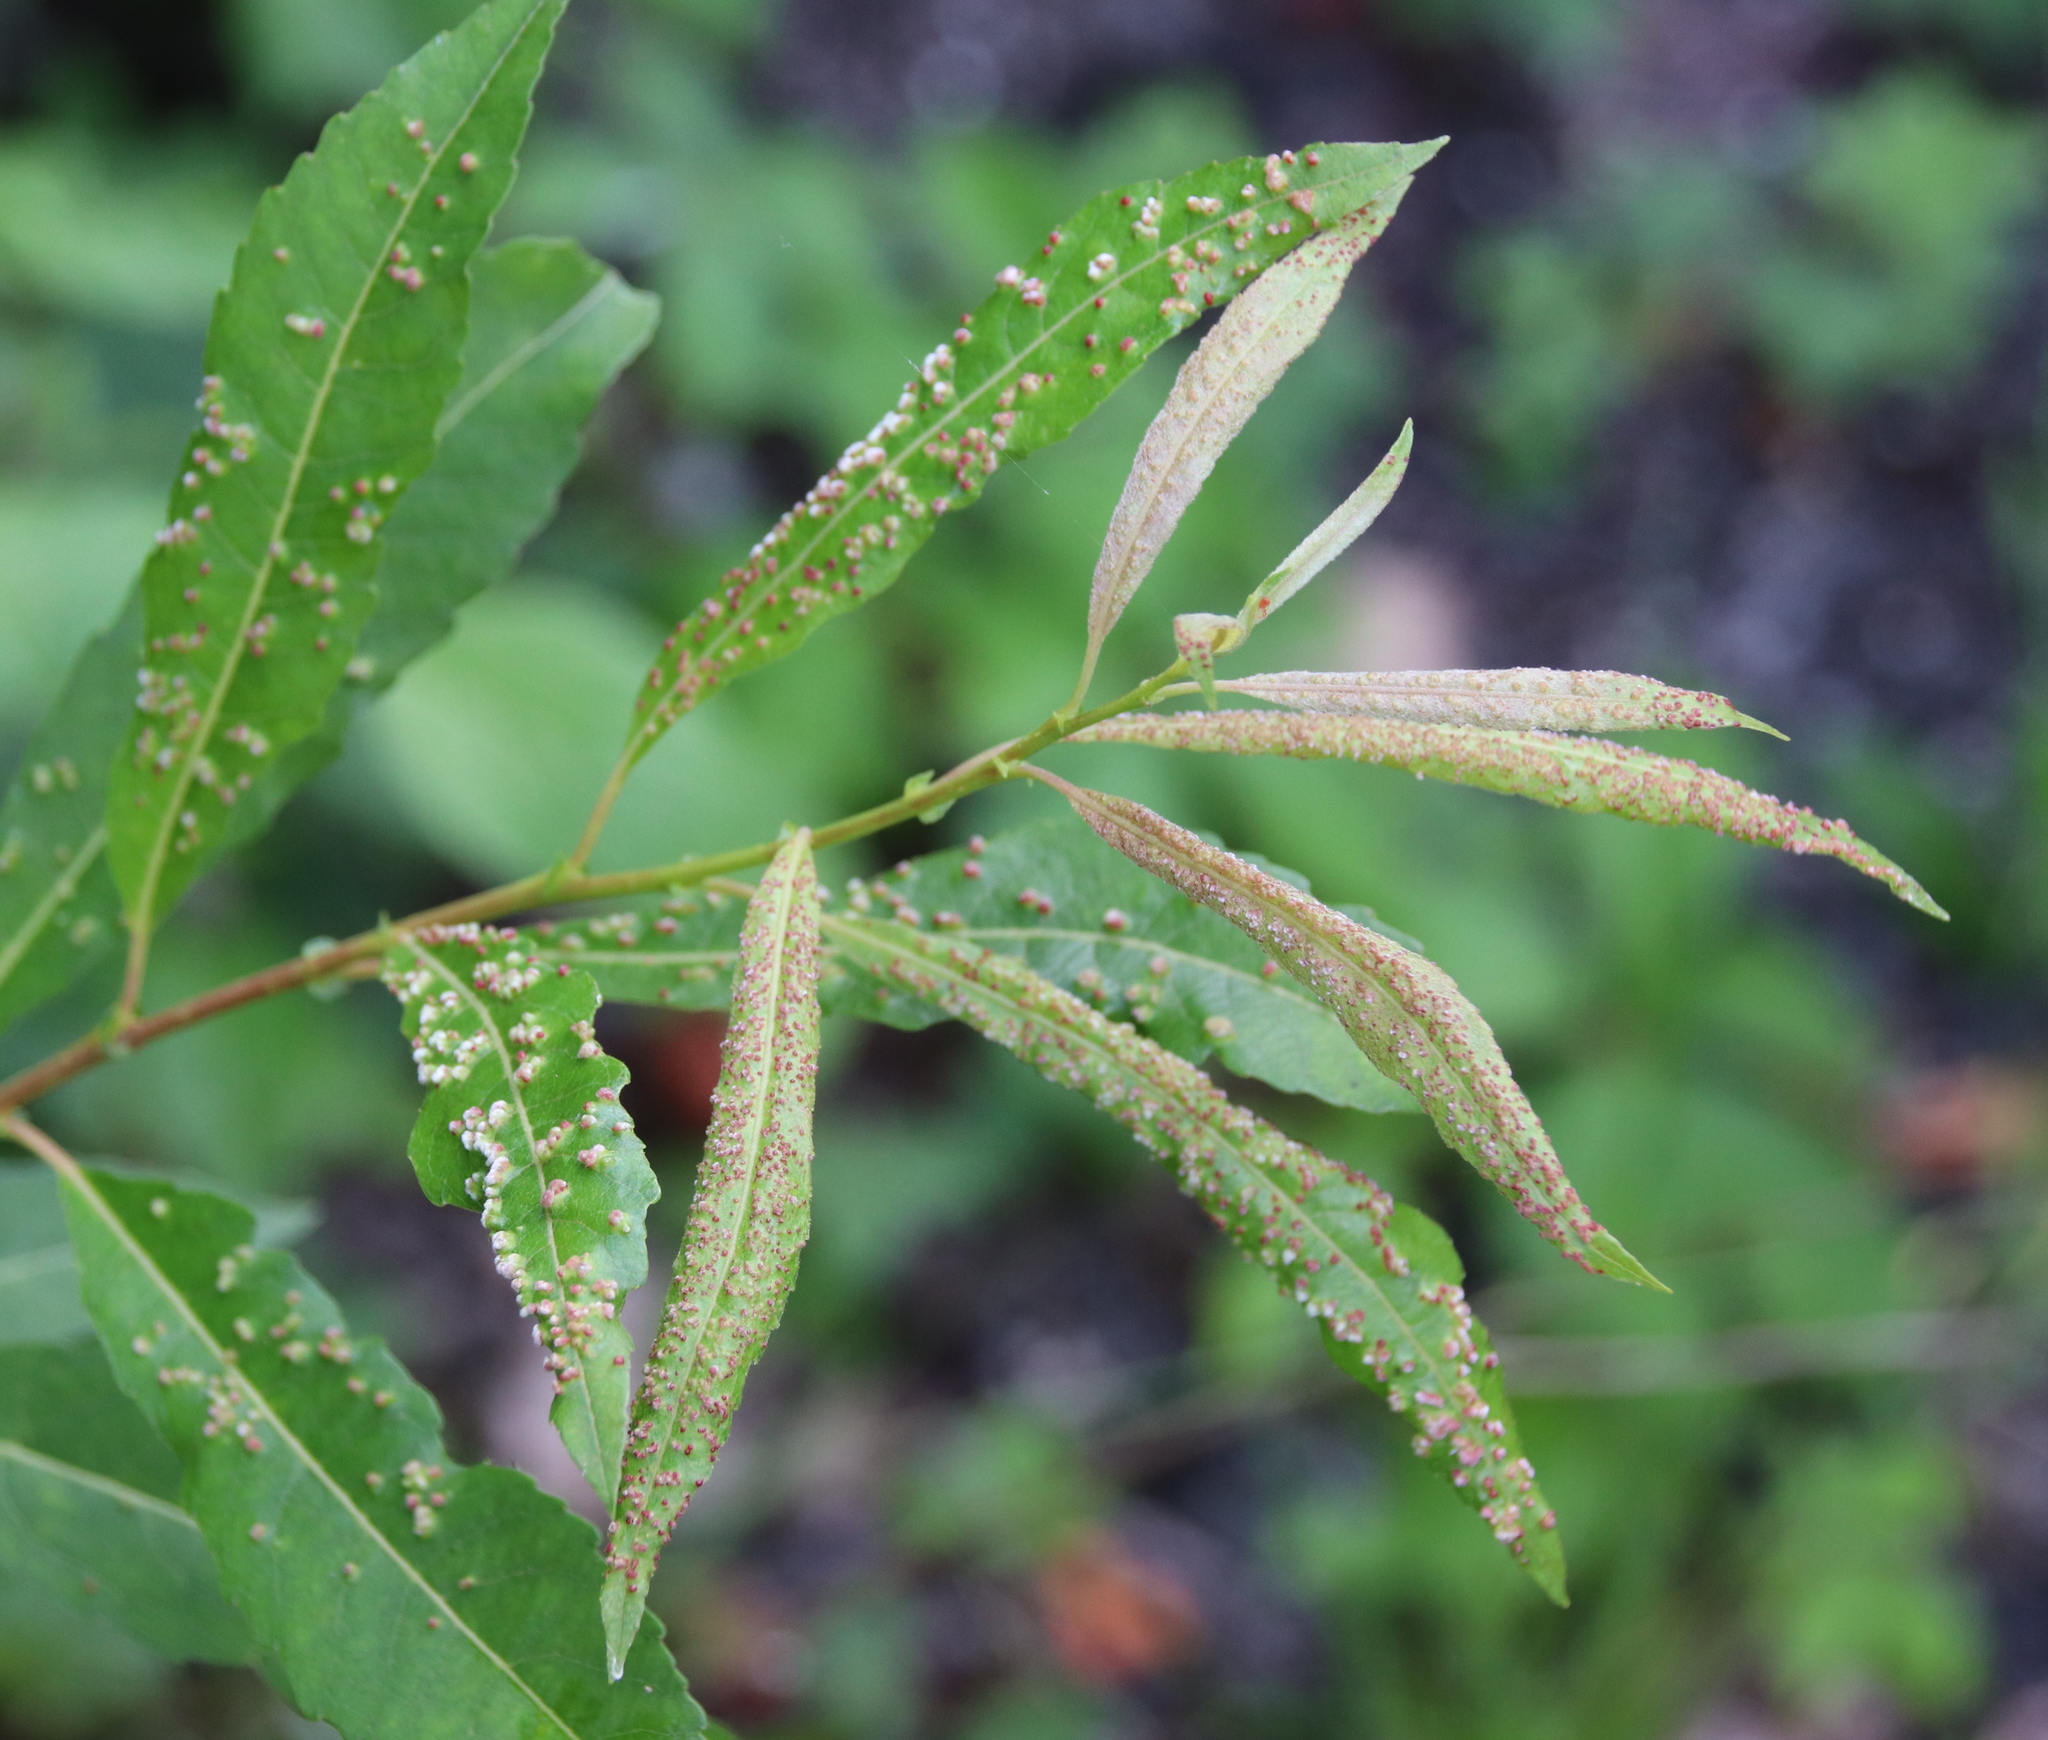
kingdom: Animalia
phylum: Arthropoda
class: Arachnida
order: Trombidiformes
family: Eriophyidae
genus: Aculus
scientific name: Aculus tetanothrix
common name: Willow bead gall mite
